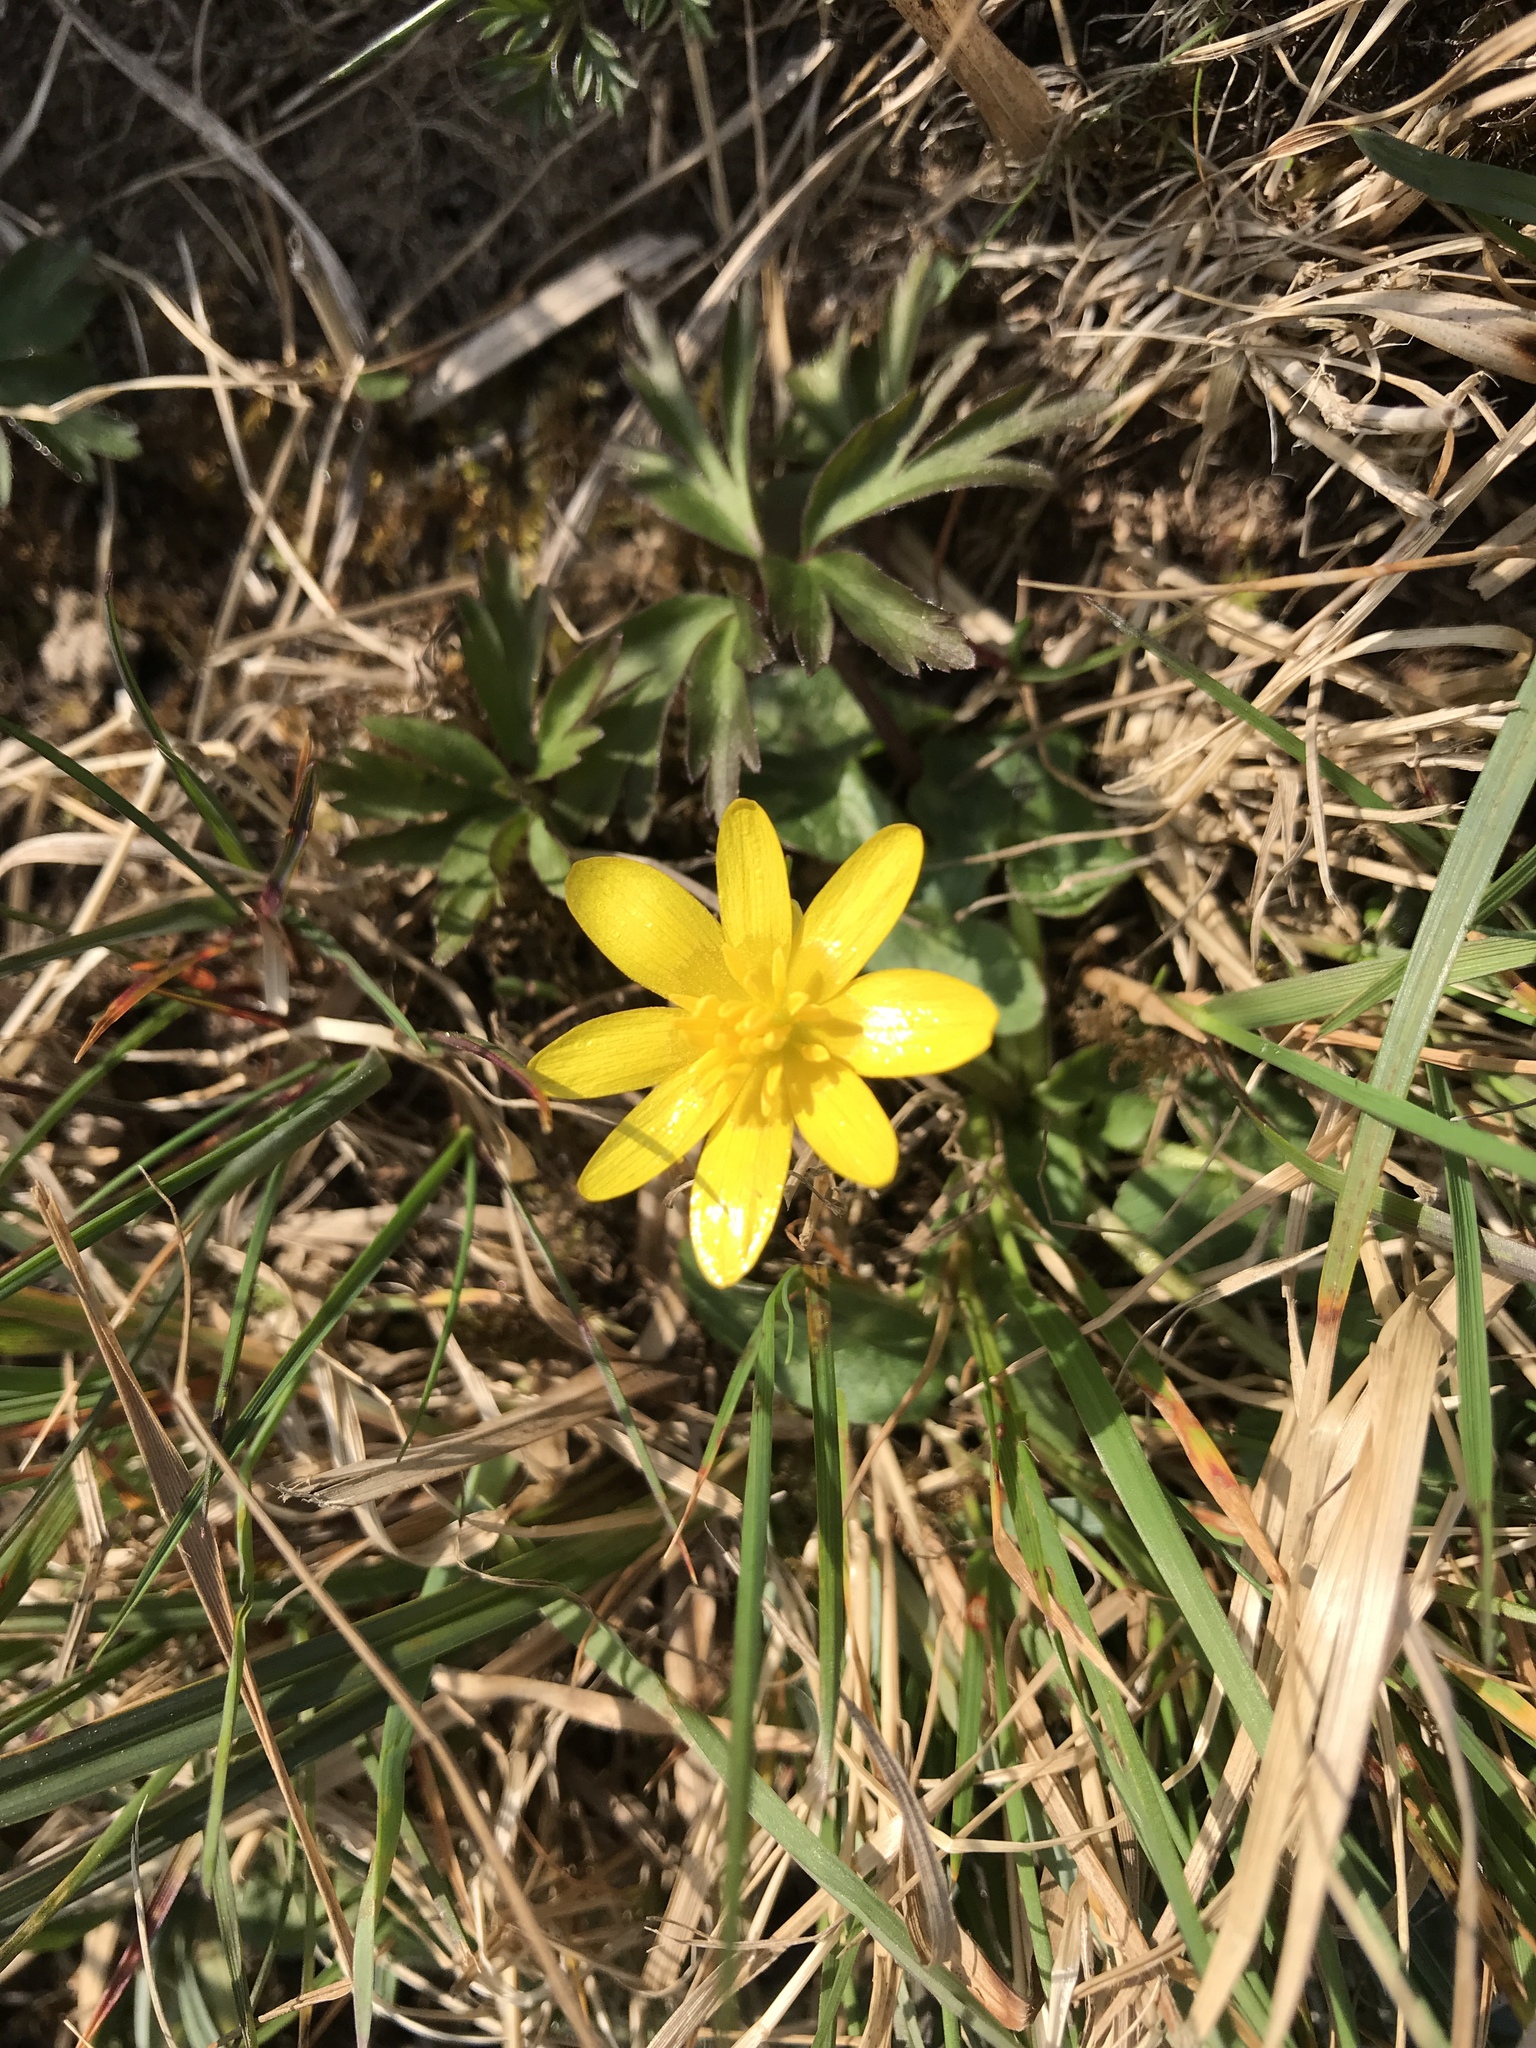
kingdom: Plantae
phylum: Tracheophyta
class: Magnoliopsida
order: Ranunculales
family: Ranunculaceae
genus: Ficaria
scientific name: Ficaria verna
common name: Lesser celandine
